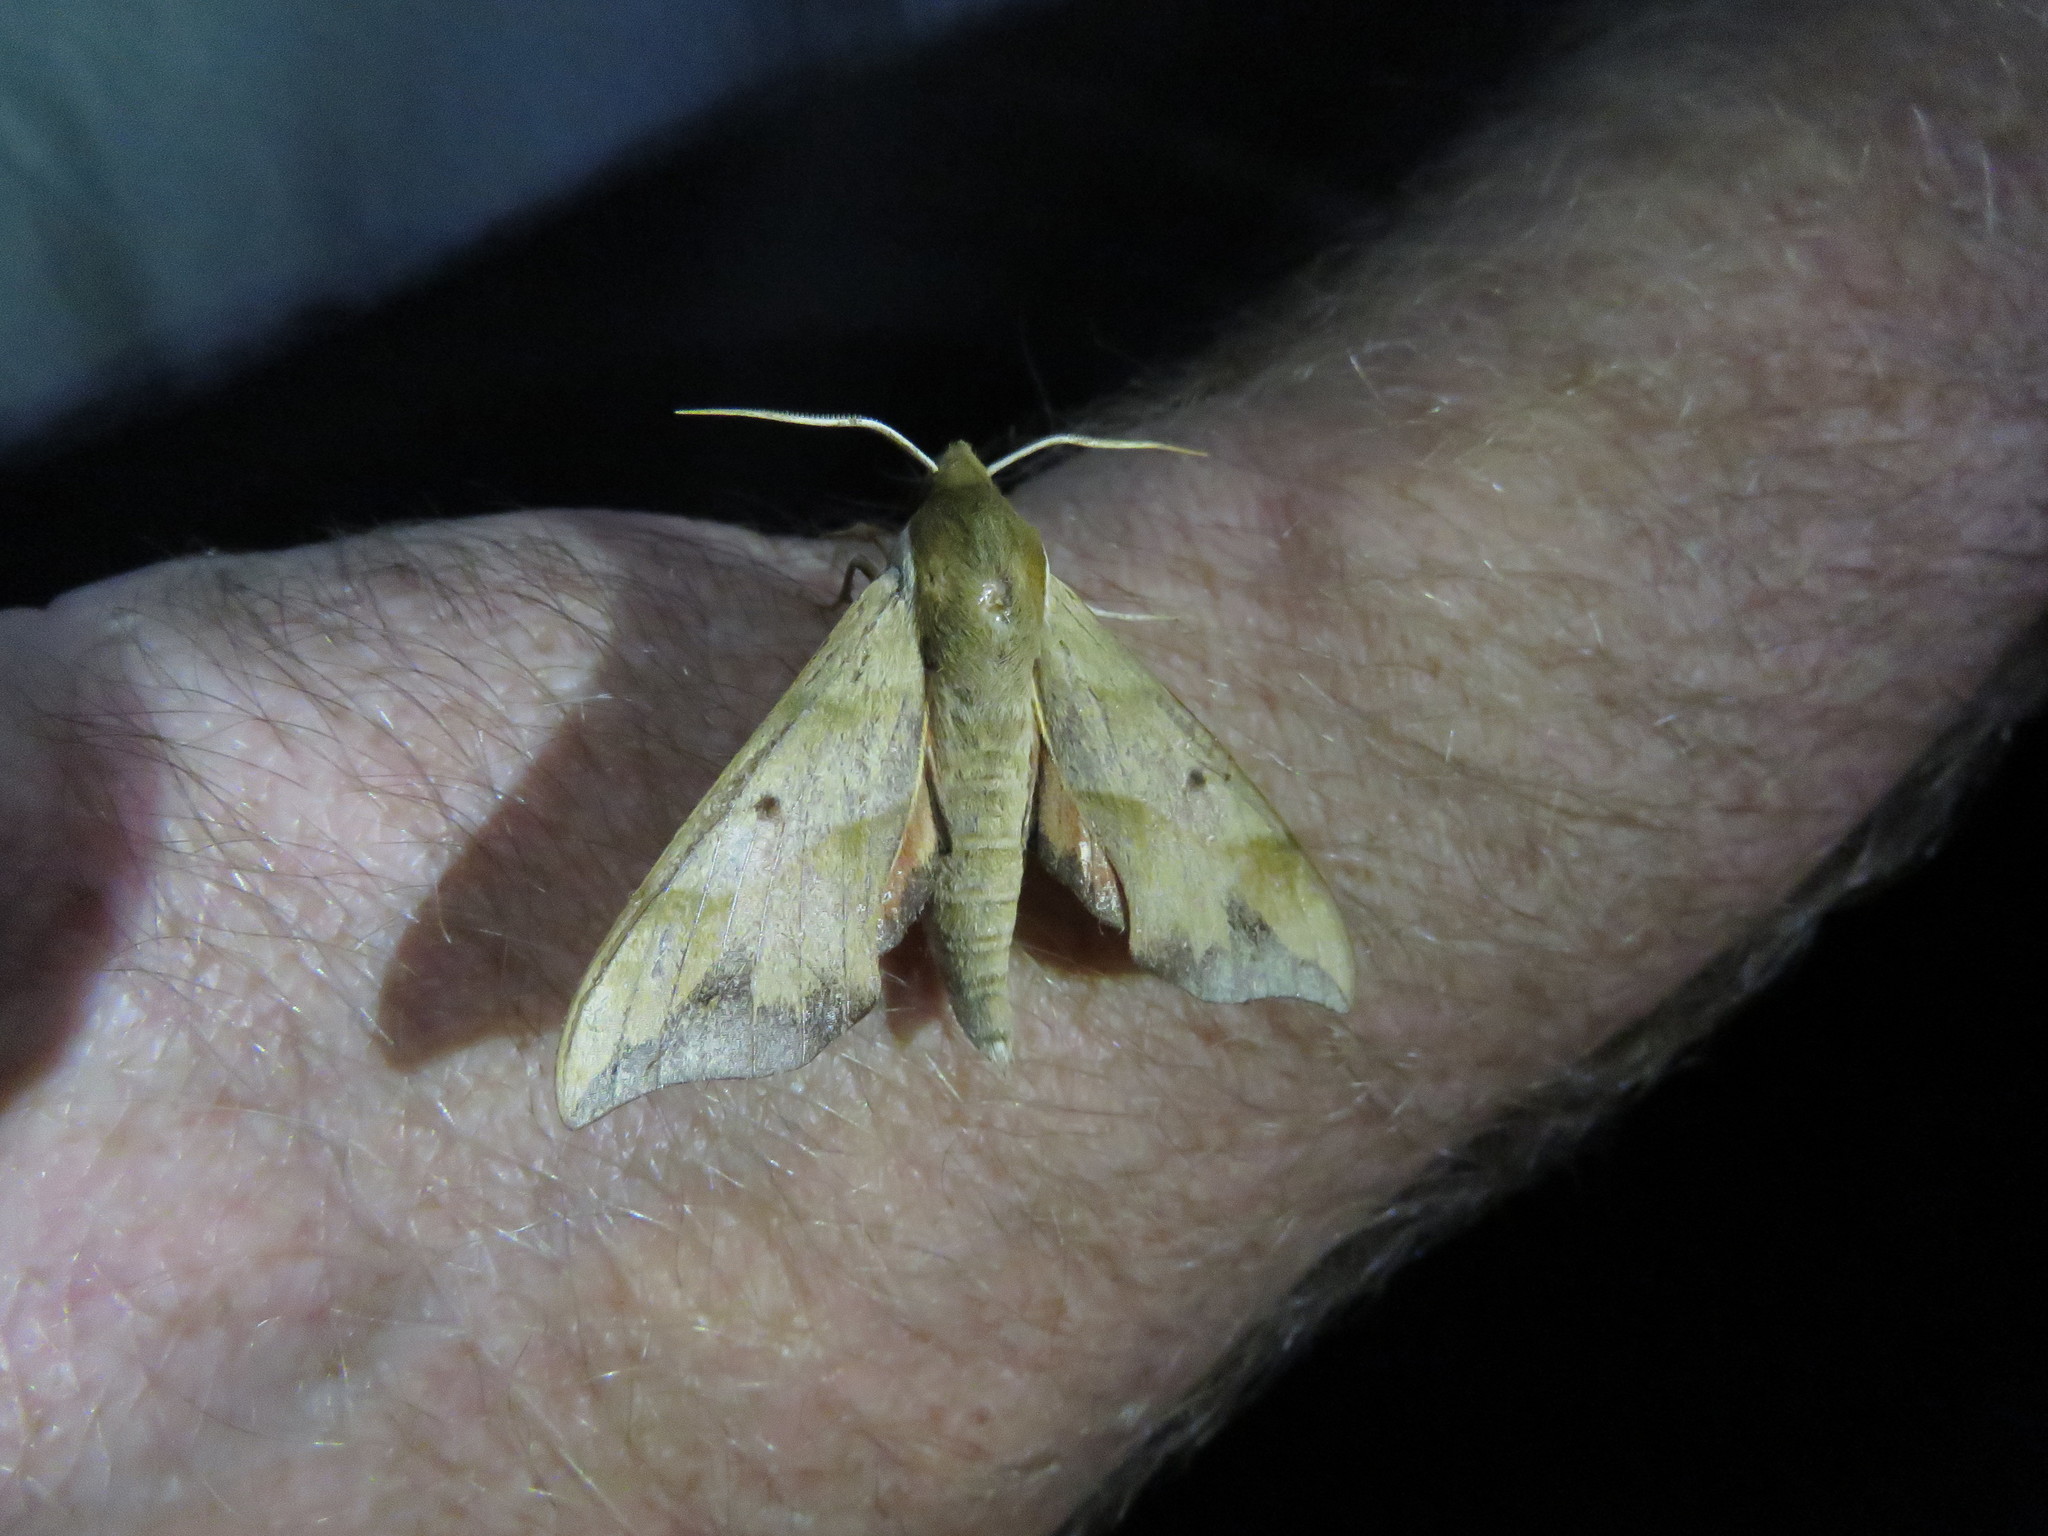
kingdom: Animalia
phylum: Arthropoda
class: Insecta
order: Lepidoptera
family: Sphingidae
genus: Darapsa
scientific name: Darapsa myron
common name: Hog sphinx
